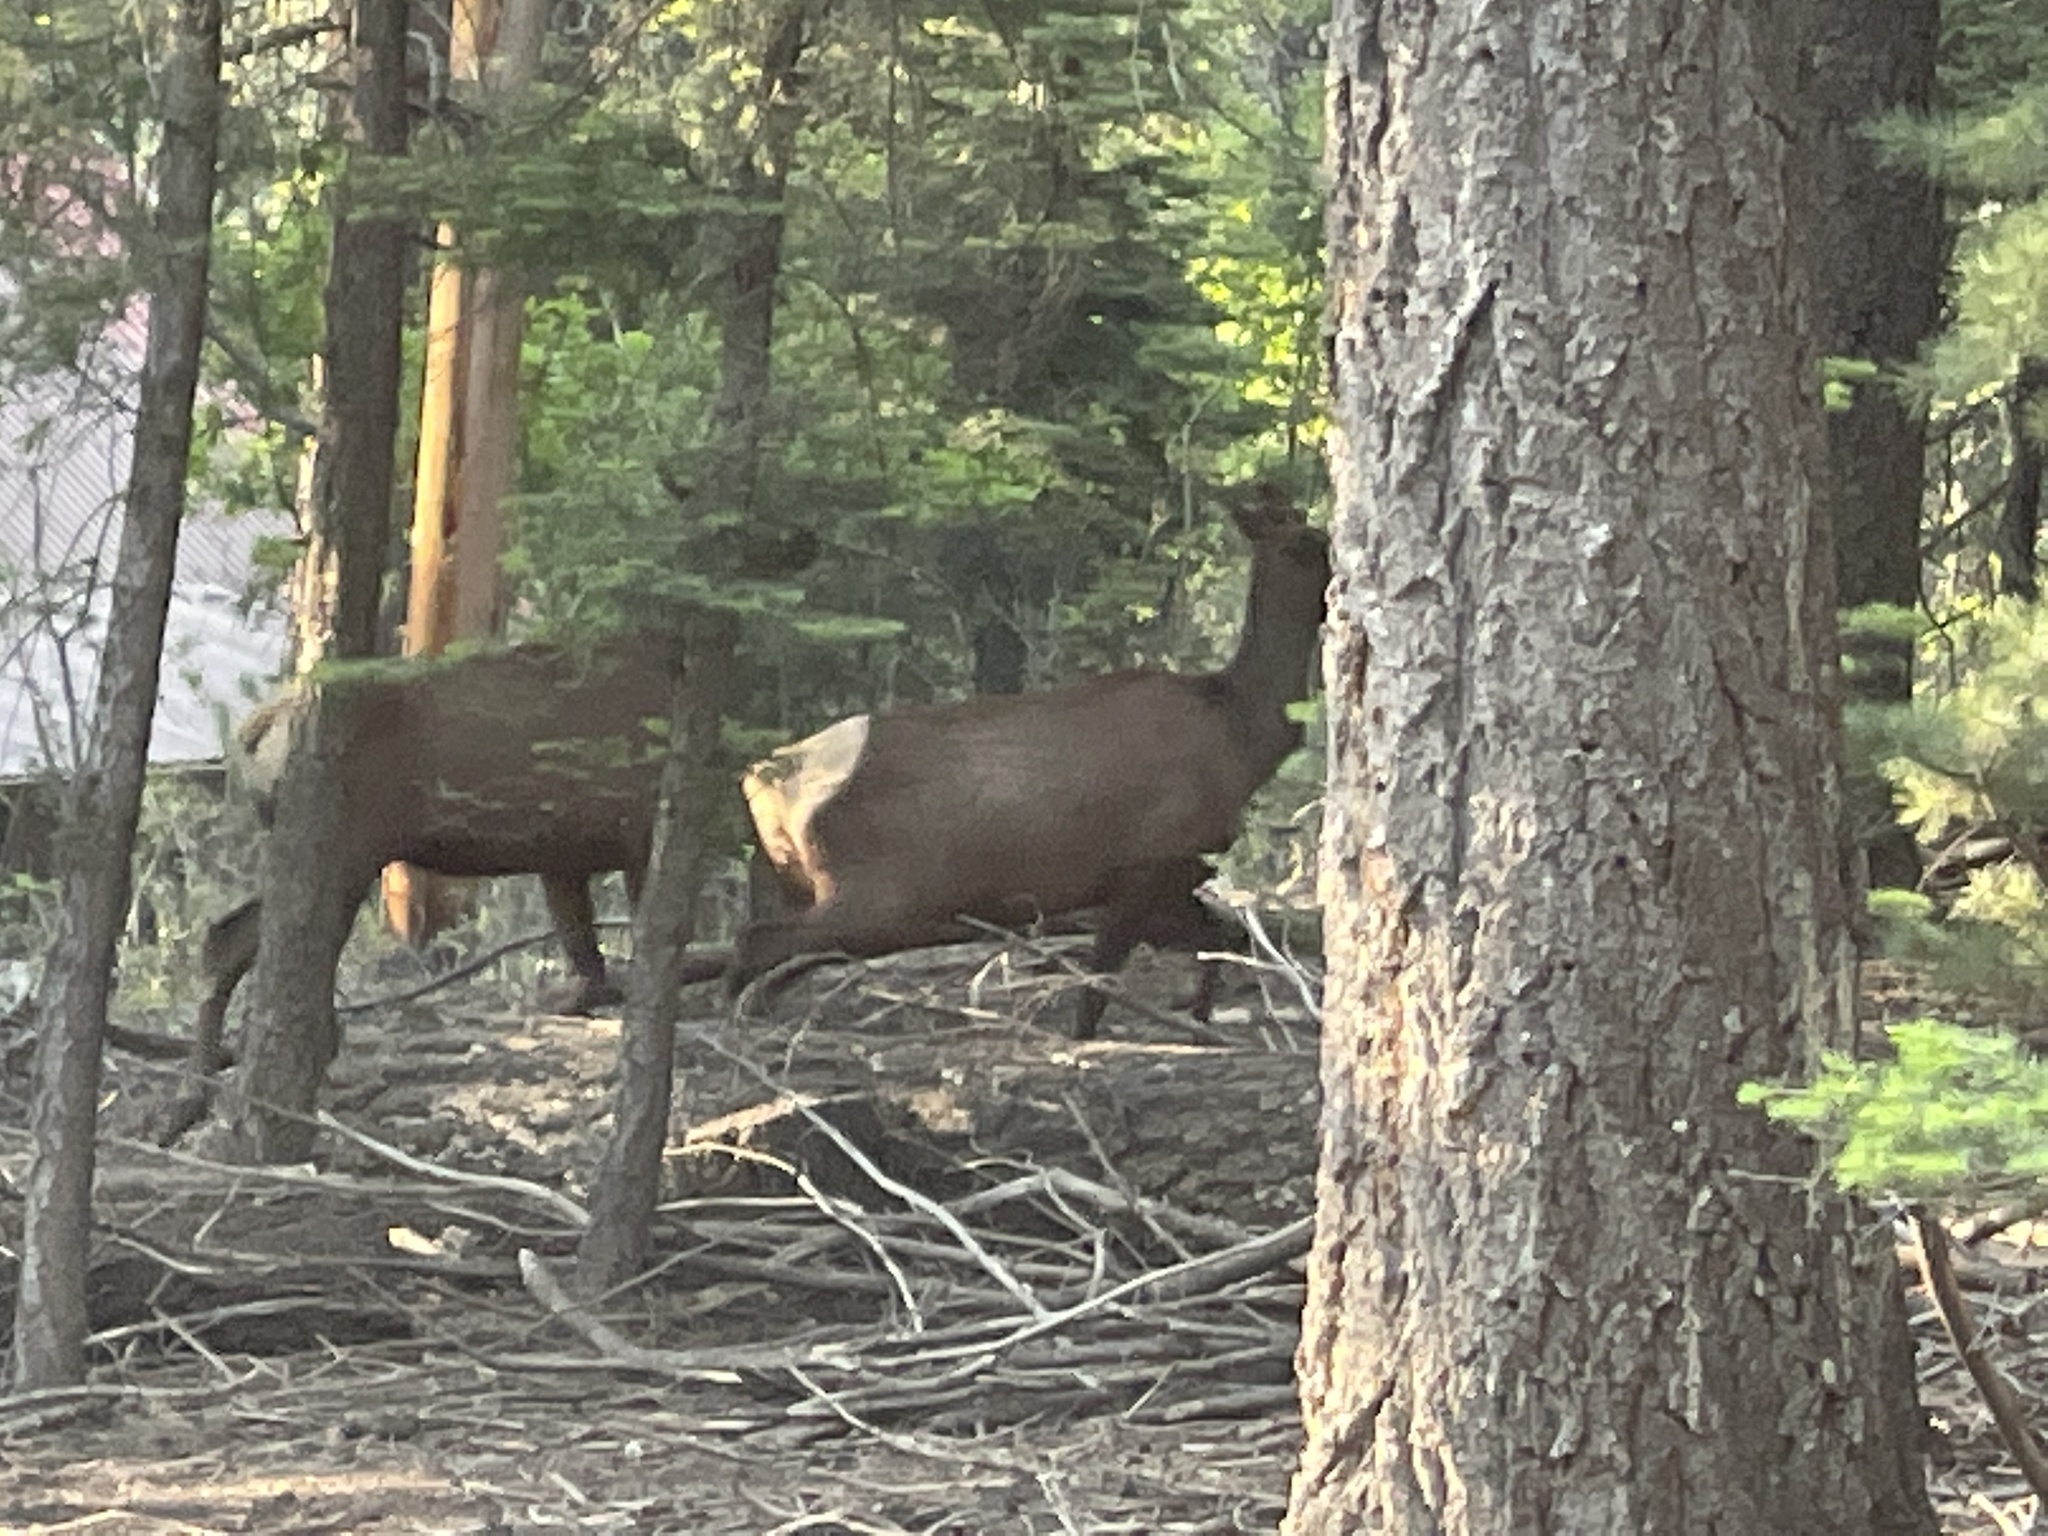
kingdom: Animalia
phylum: Chordata
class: Mammalia
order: Artiodactyla
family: Cervidae
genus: Cervus
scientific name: Cervus elaphus
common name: Red deer
